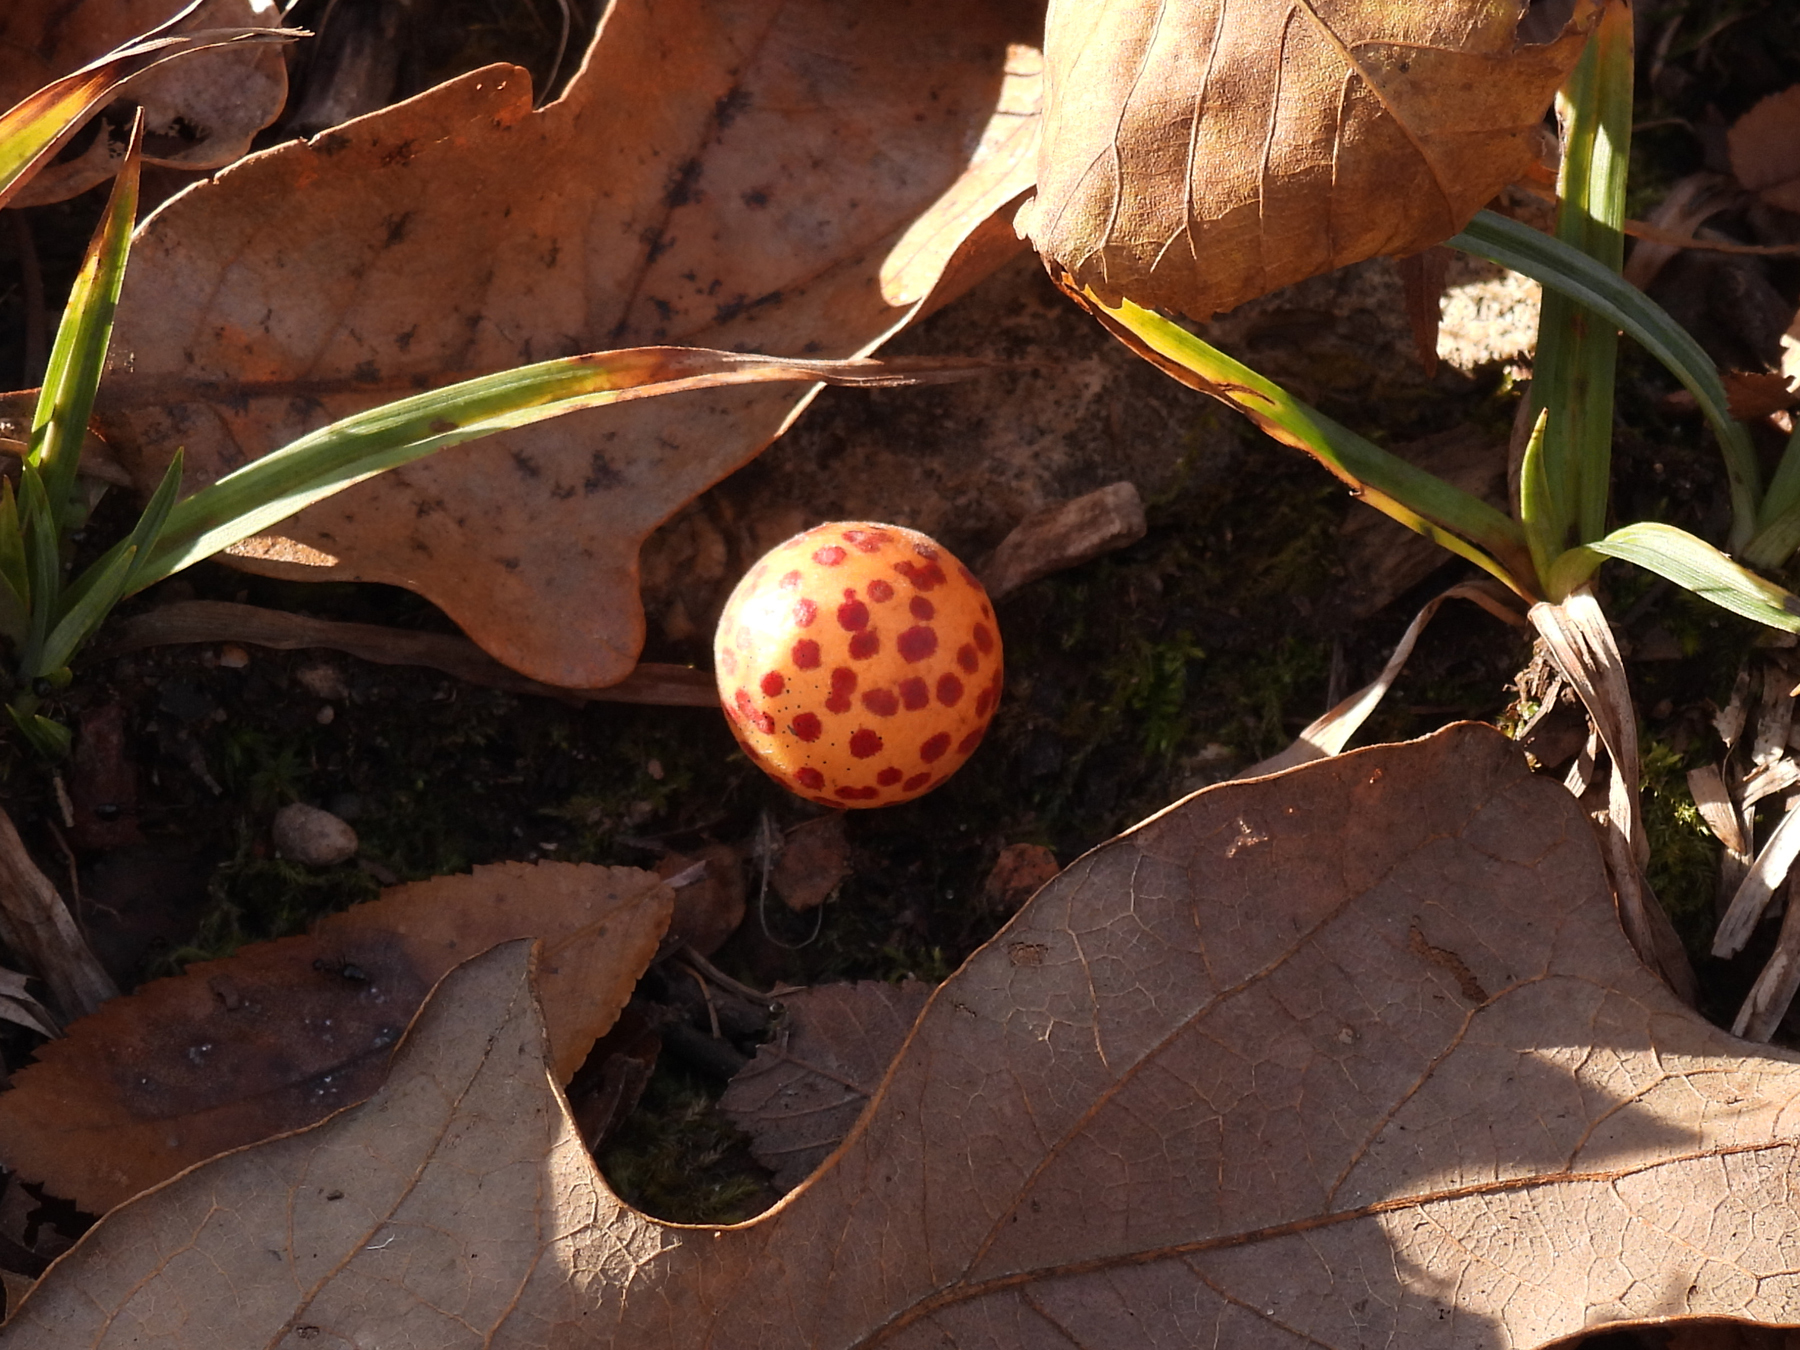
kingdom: Animalia
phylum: Arthropoda
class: Insecta
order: Hymenoptera
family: Cynipidae
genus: Atrusca
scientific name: Atrusca
